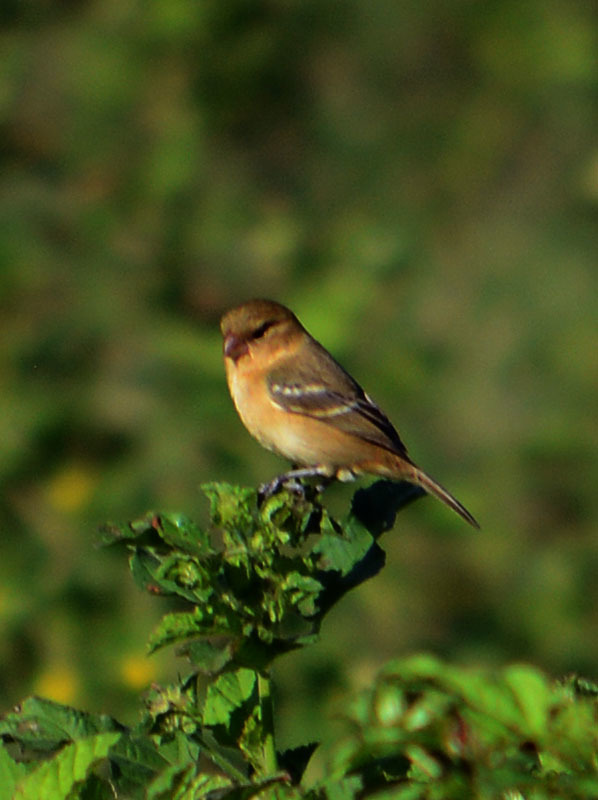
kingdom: Animalia
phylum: Chordata
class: Aves
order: Passeriformes
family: Thraupidae
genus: Sporophila
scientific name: Sporophila morelleti
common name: Morelet's seedeater
